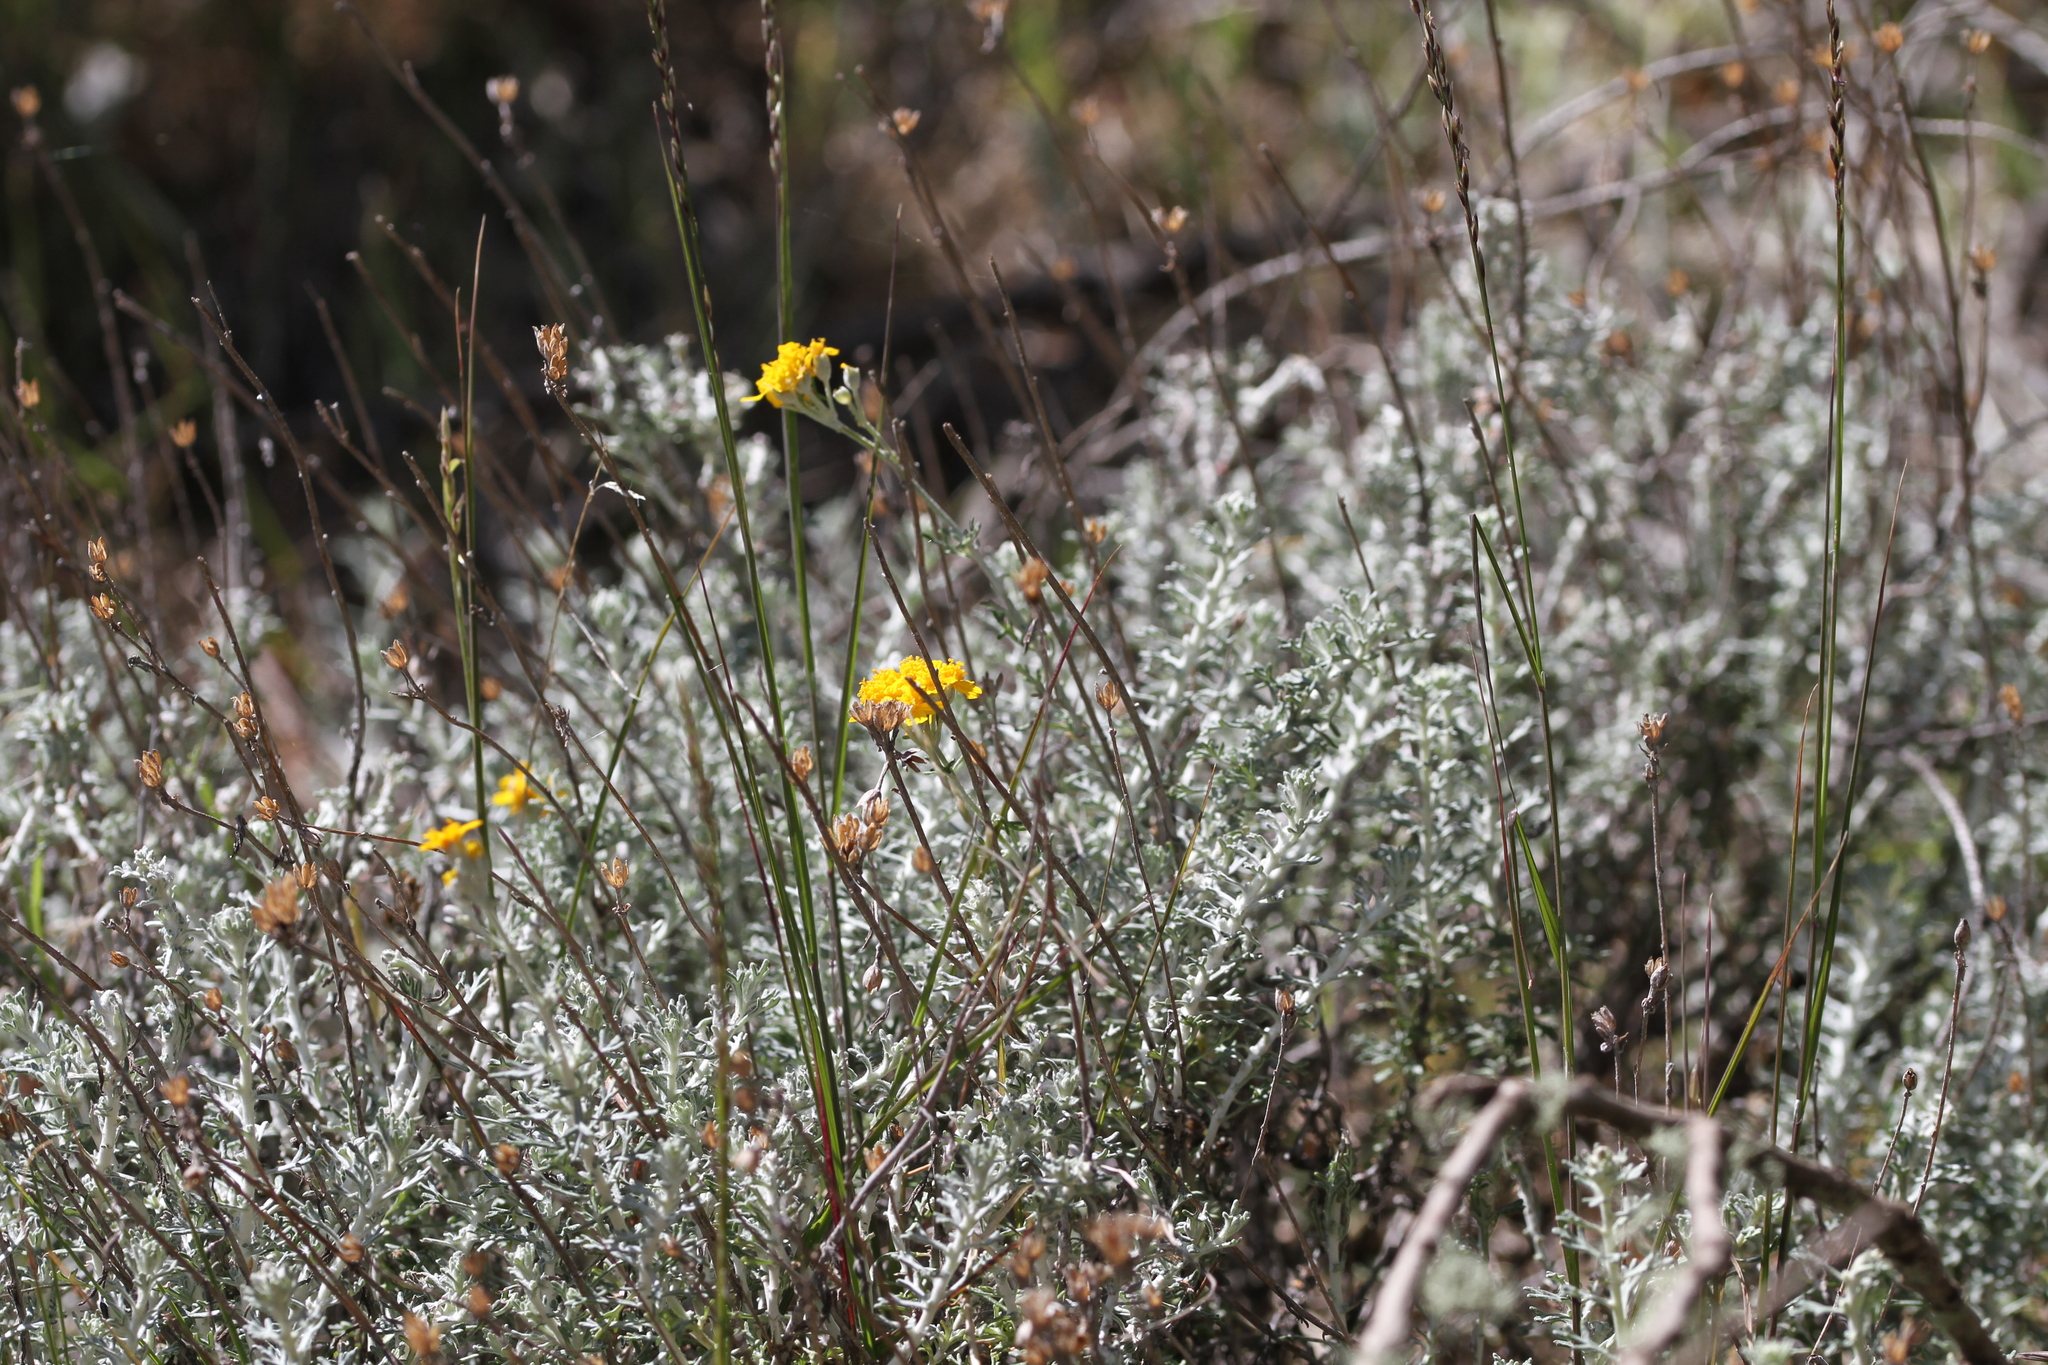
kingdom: Plantae
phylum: Tracheophyta
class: Magnoliopsida
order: Asterales
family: Asteraceae
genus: Eriophyllum
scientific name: Eriophyllum confertiflorum
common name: Golden-yarrow
